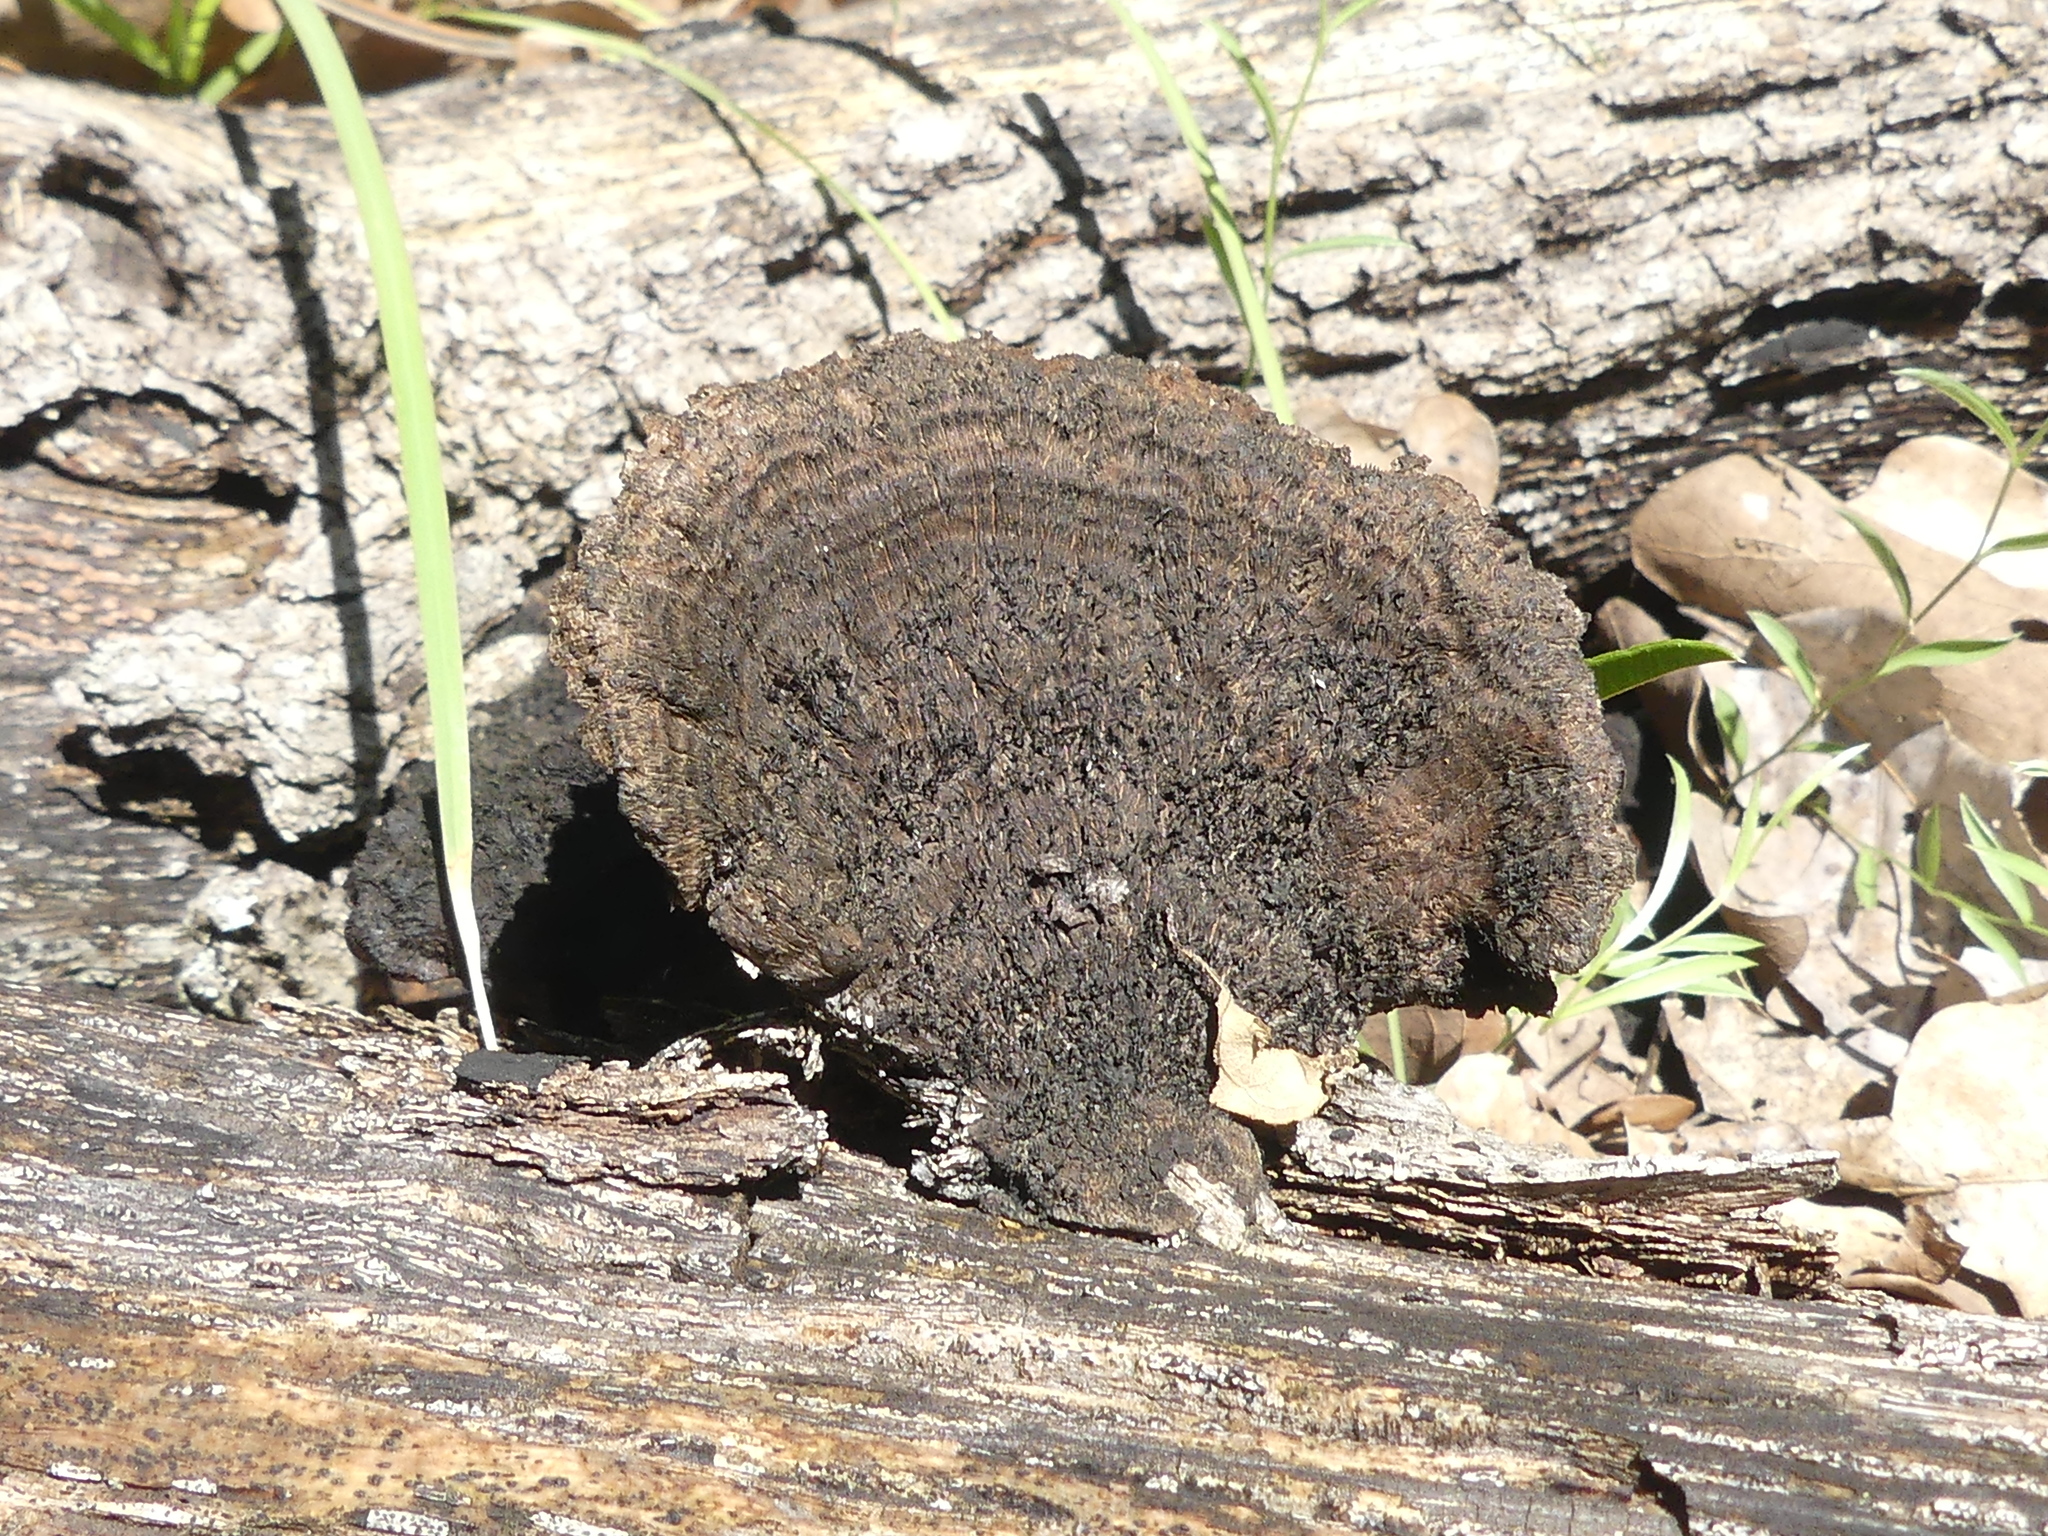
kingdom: Fungi
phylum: Basidiomycota
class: Agaricomycetes
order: Polyporales
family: Cerrenaceae
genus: Cerrena
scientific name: Cerrena hydnoides
